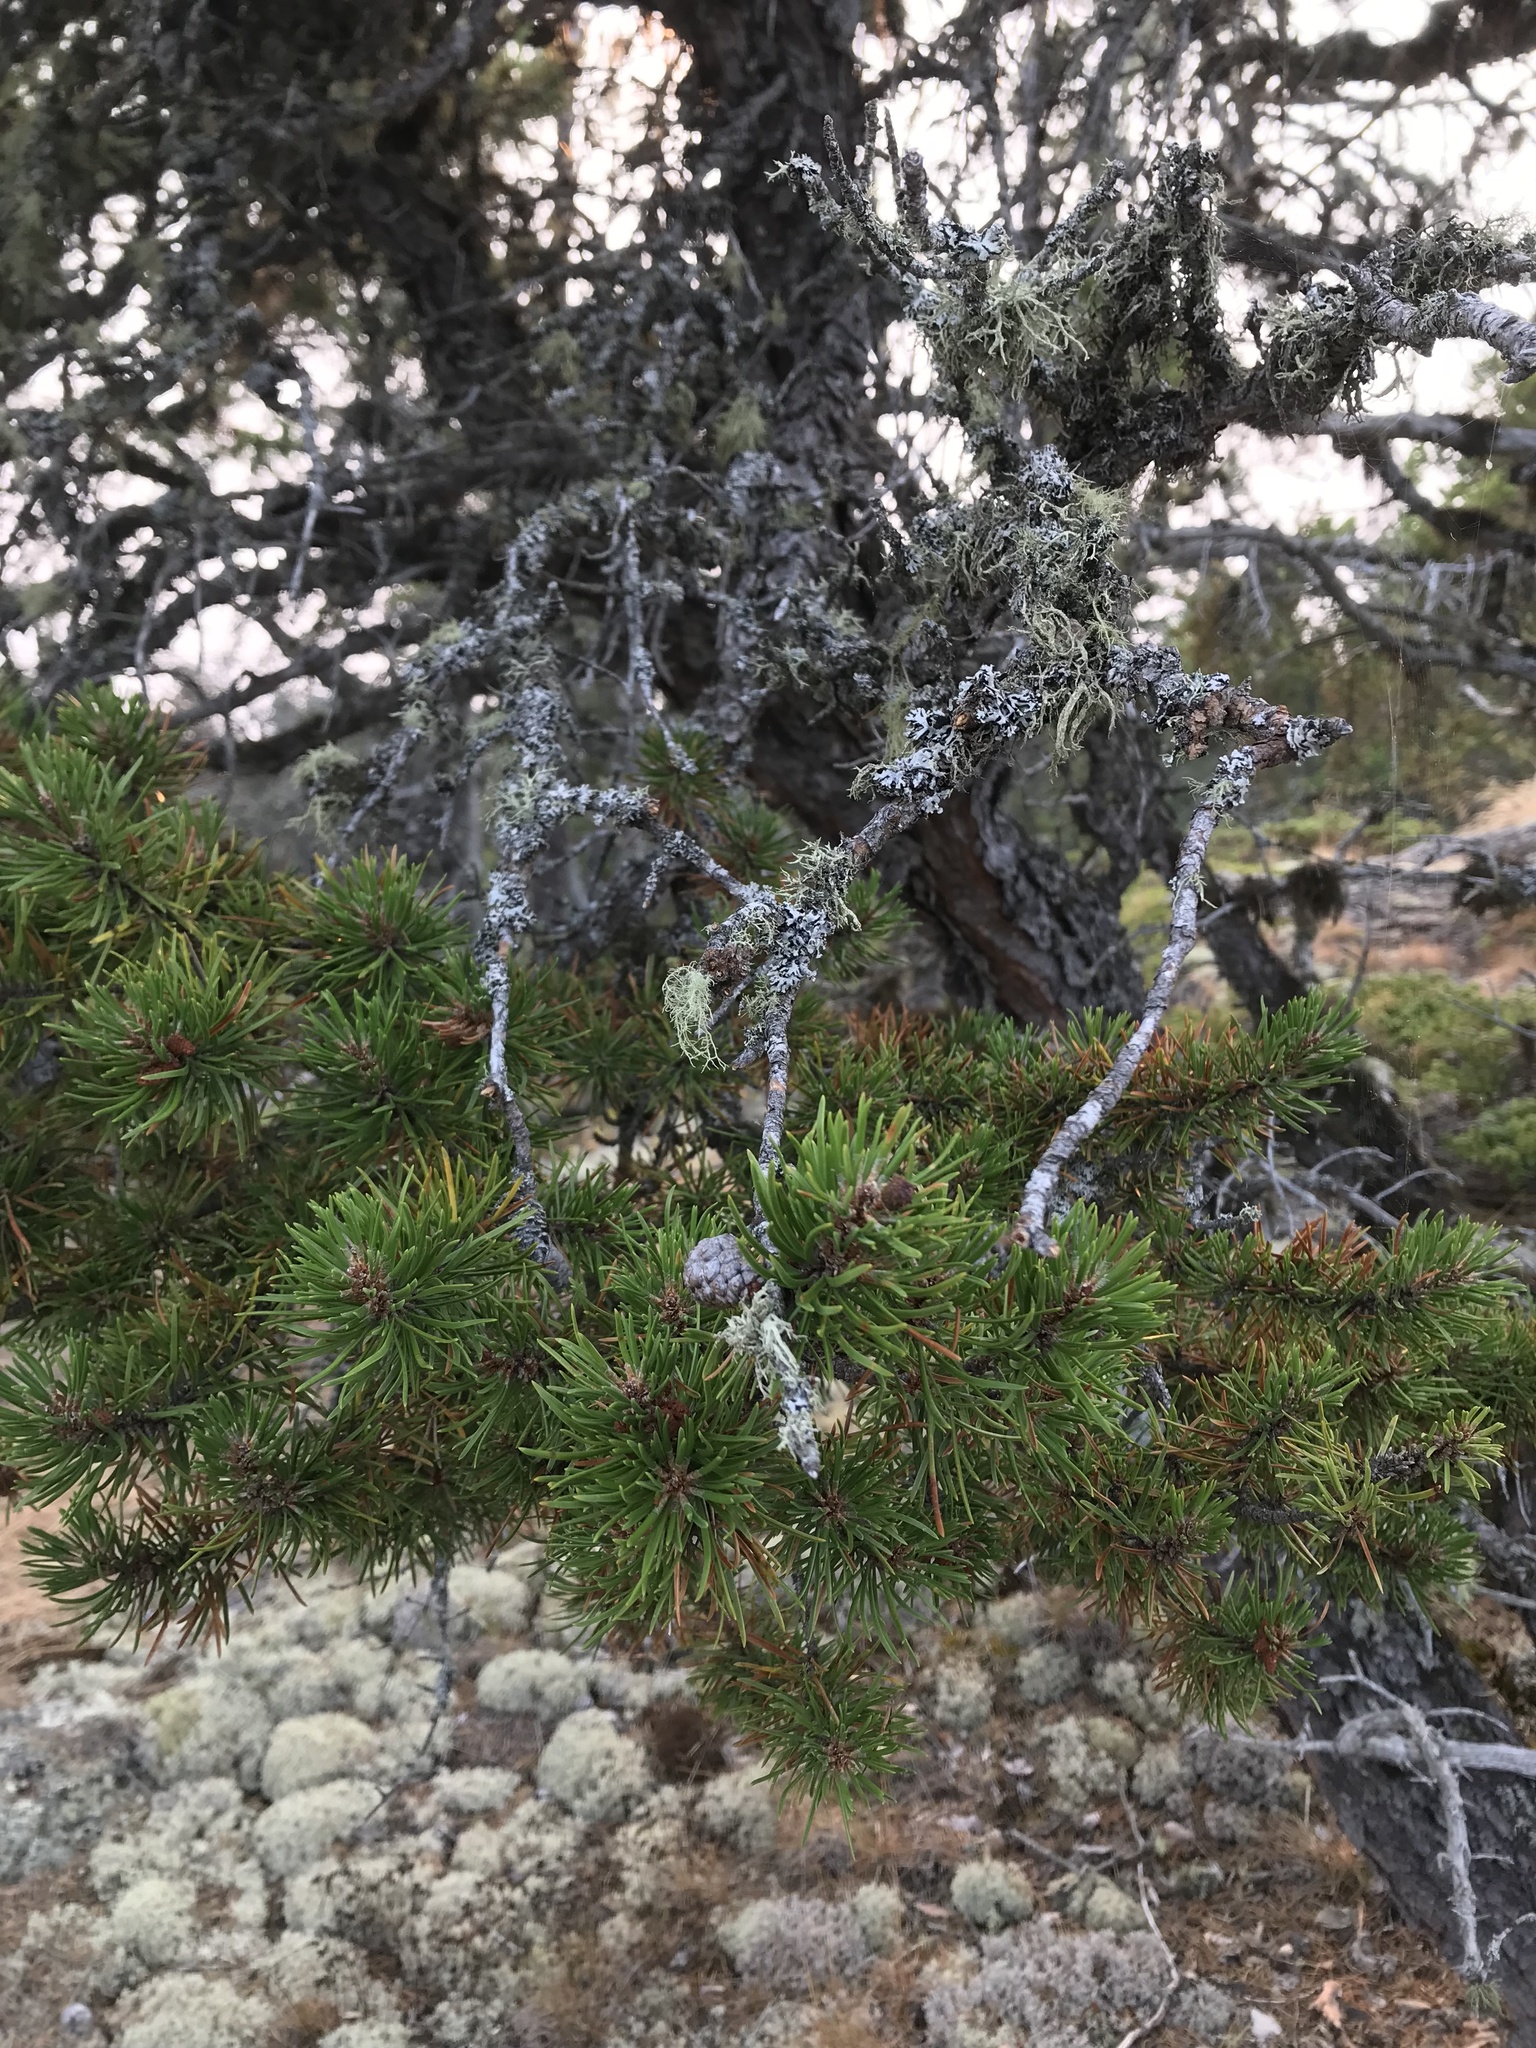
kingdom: Plantae
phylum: Tracheophyta
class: Pinopsida
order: Pinales
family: Pinaceae
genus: Pinus
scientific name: Pinus banksiana
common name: Jack pine
